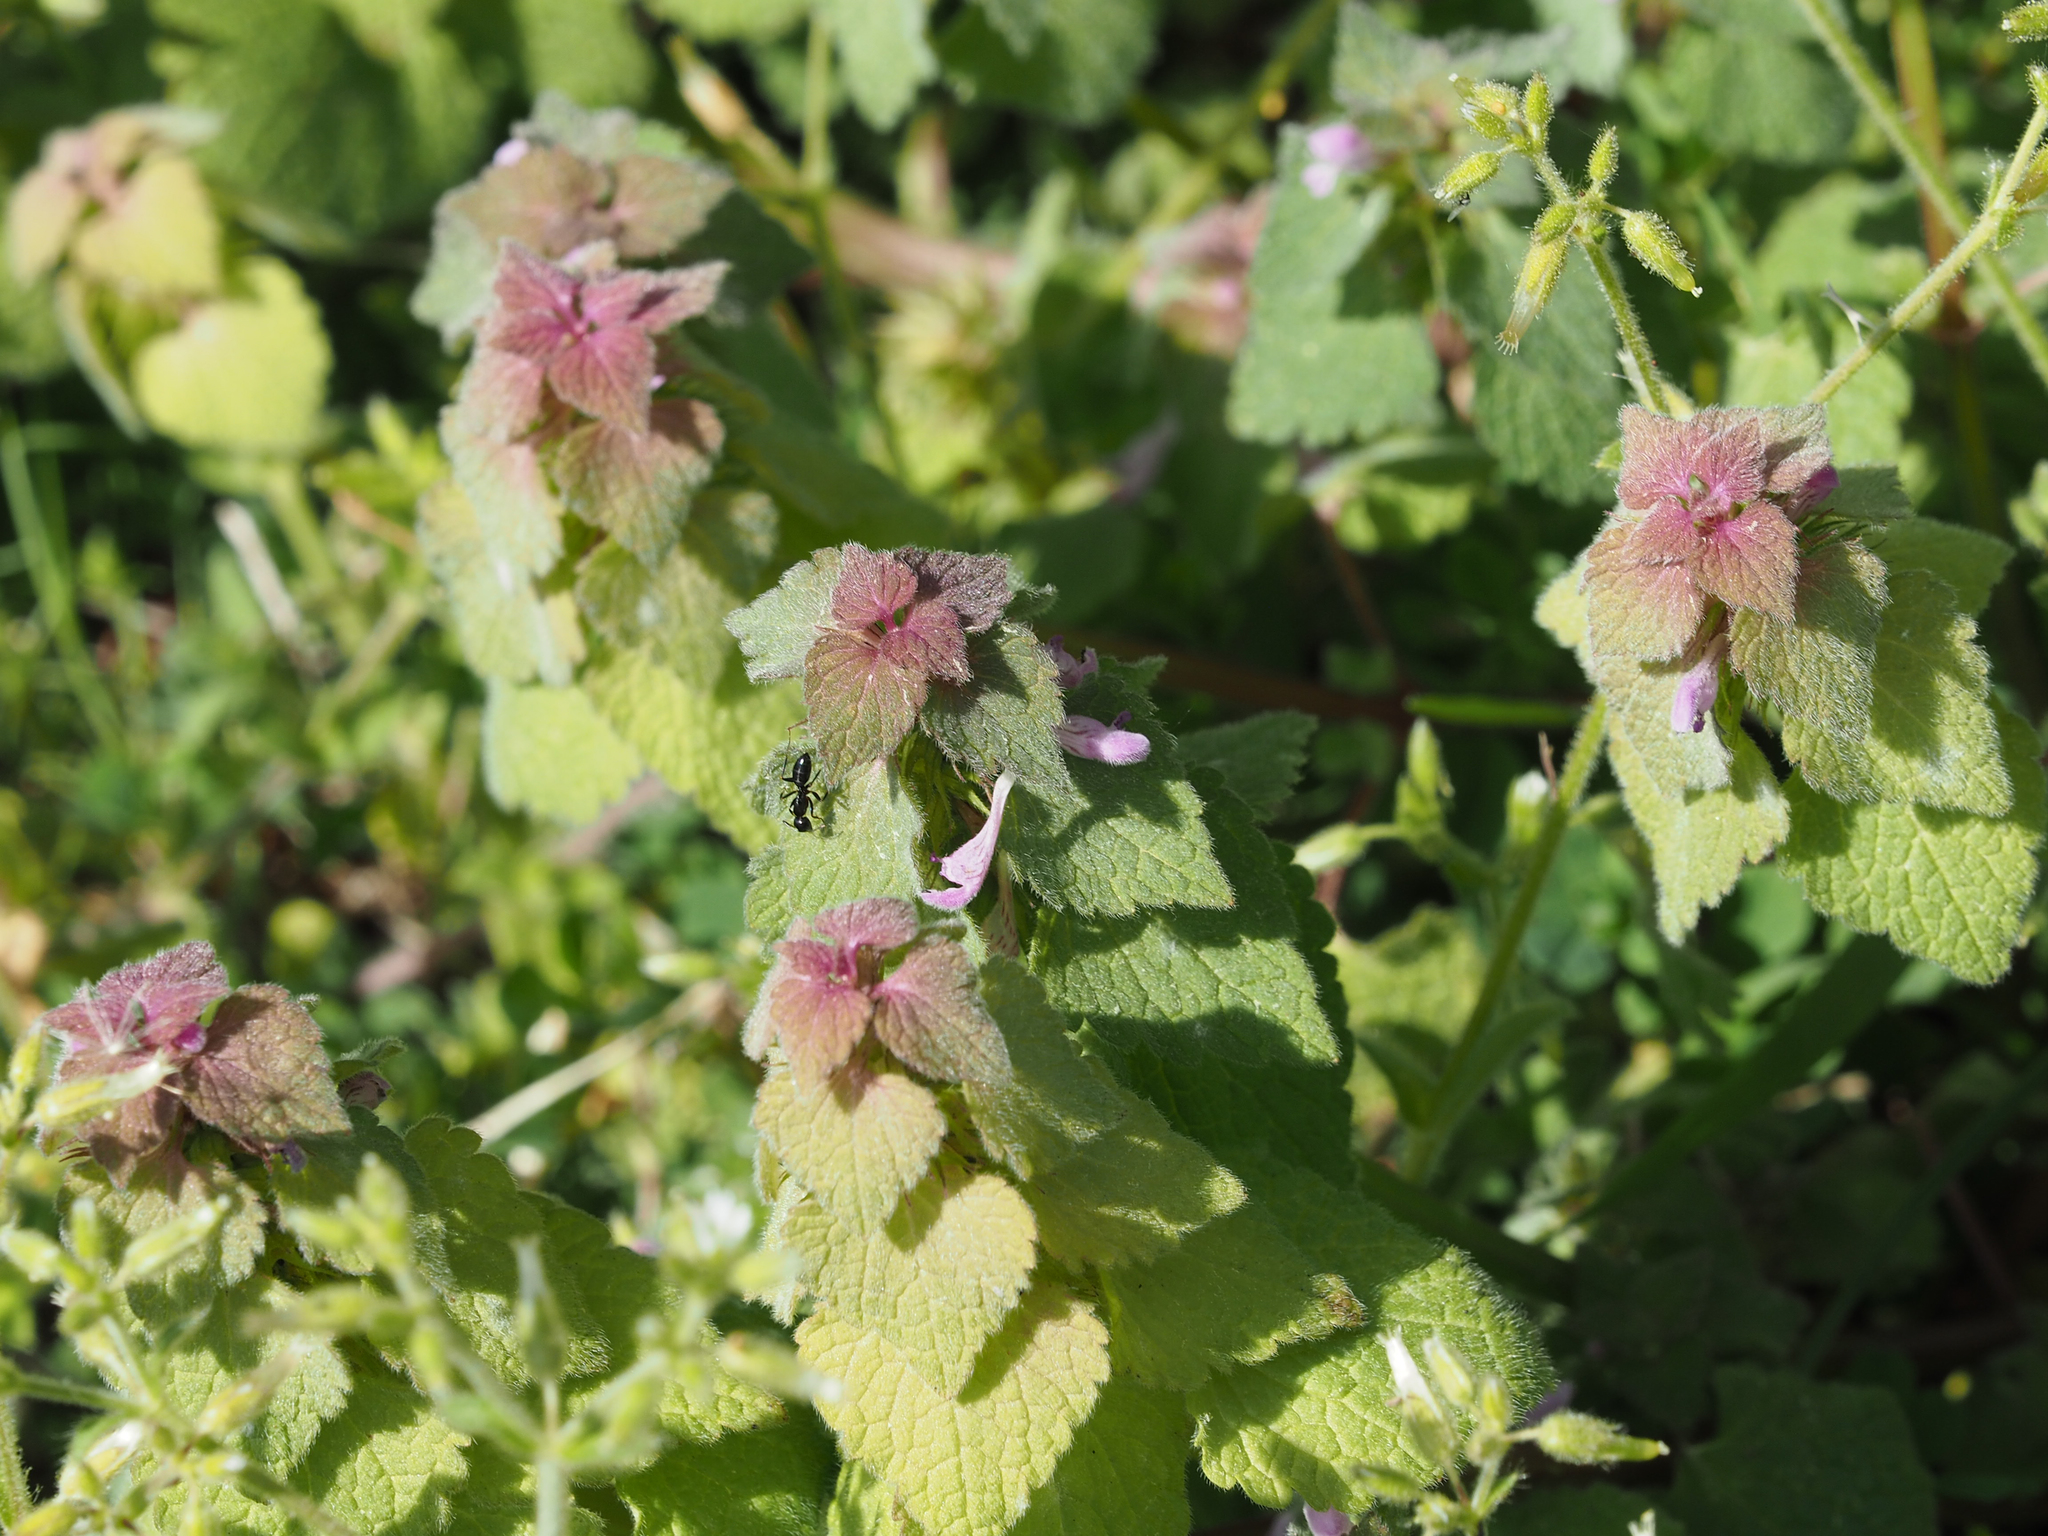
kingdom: Plantae
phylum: Tracheophyta
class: Magnoliopsida
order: Lamiales
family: Lamiaceae
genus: Lamium
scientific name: Lamium purpureum
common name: Red dead-nettle
